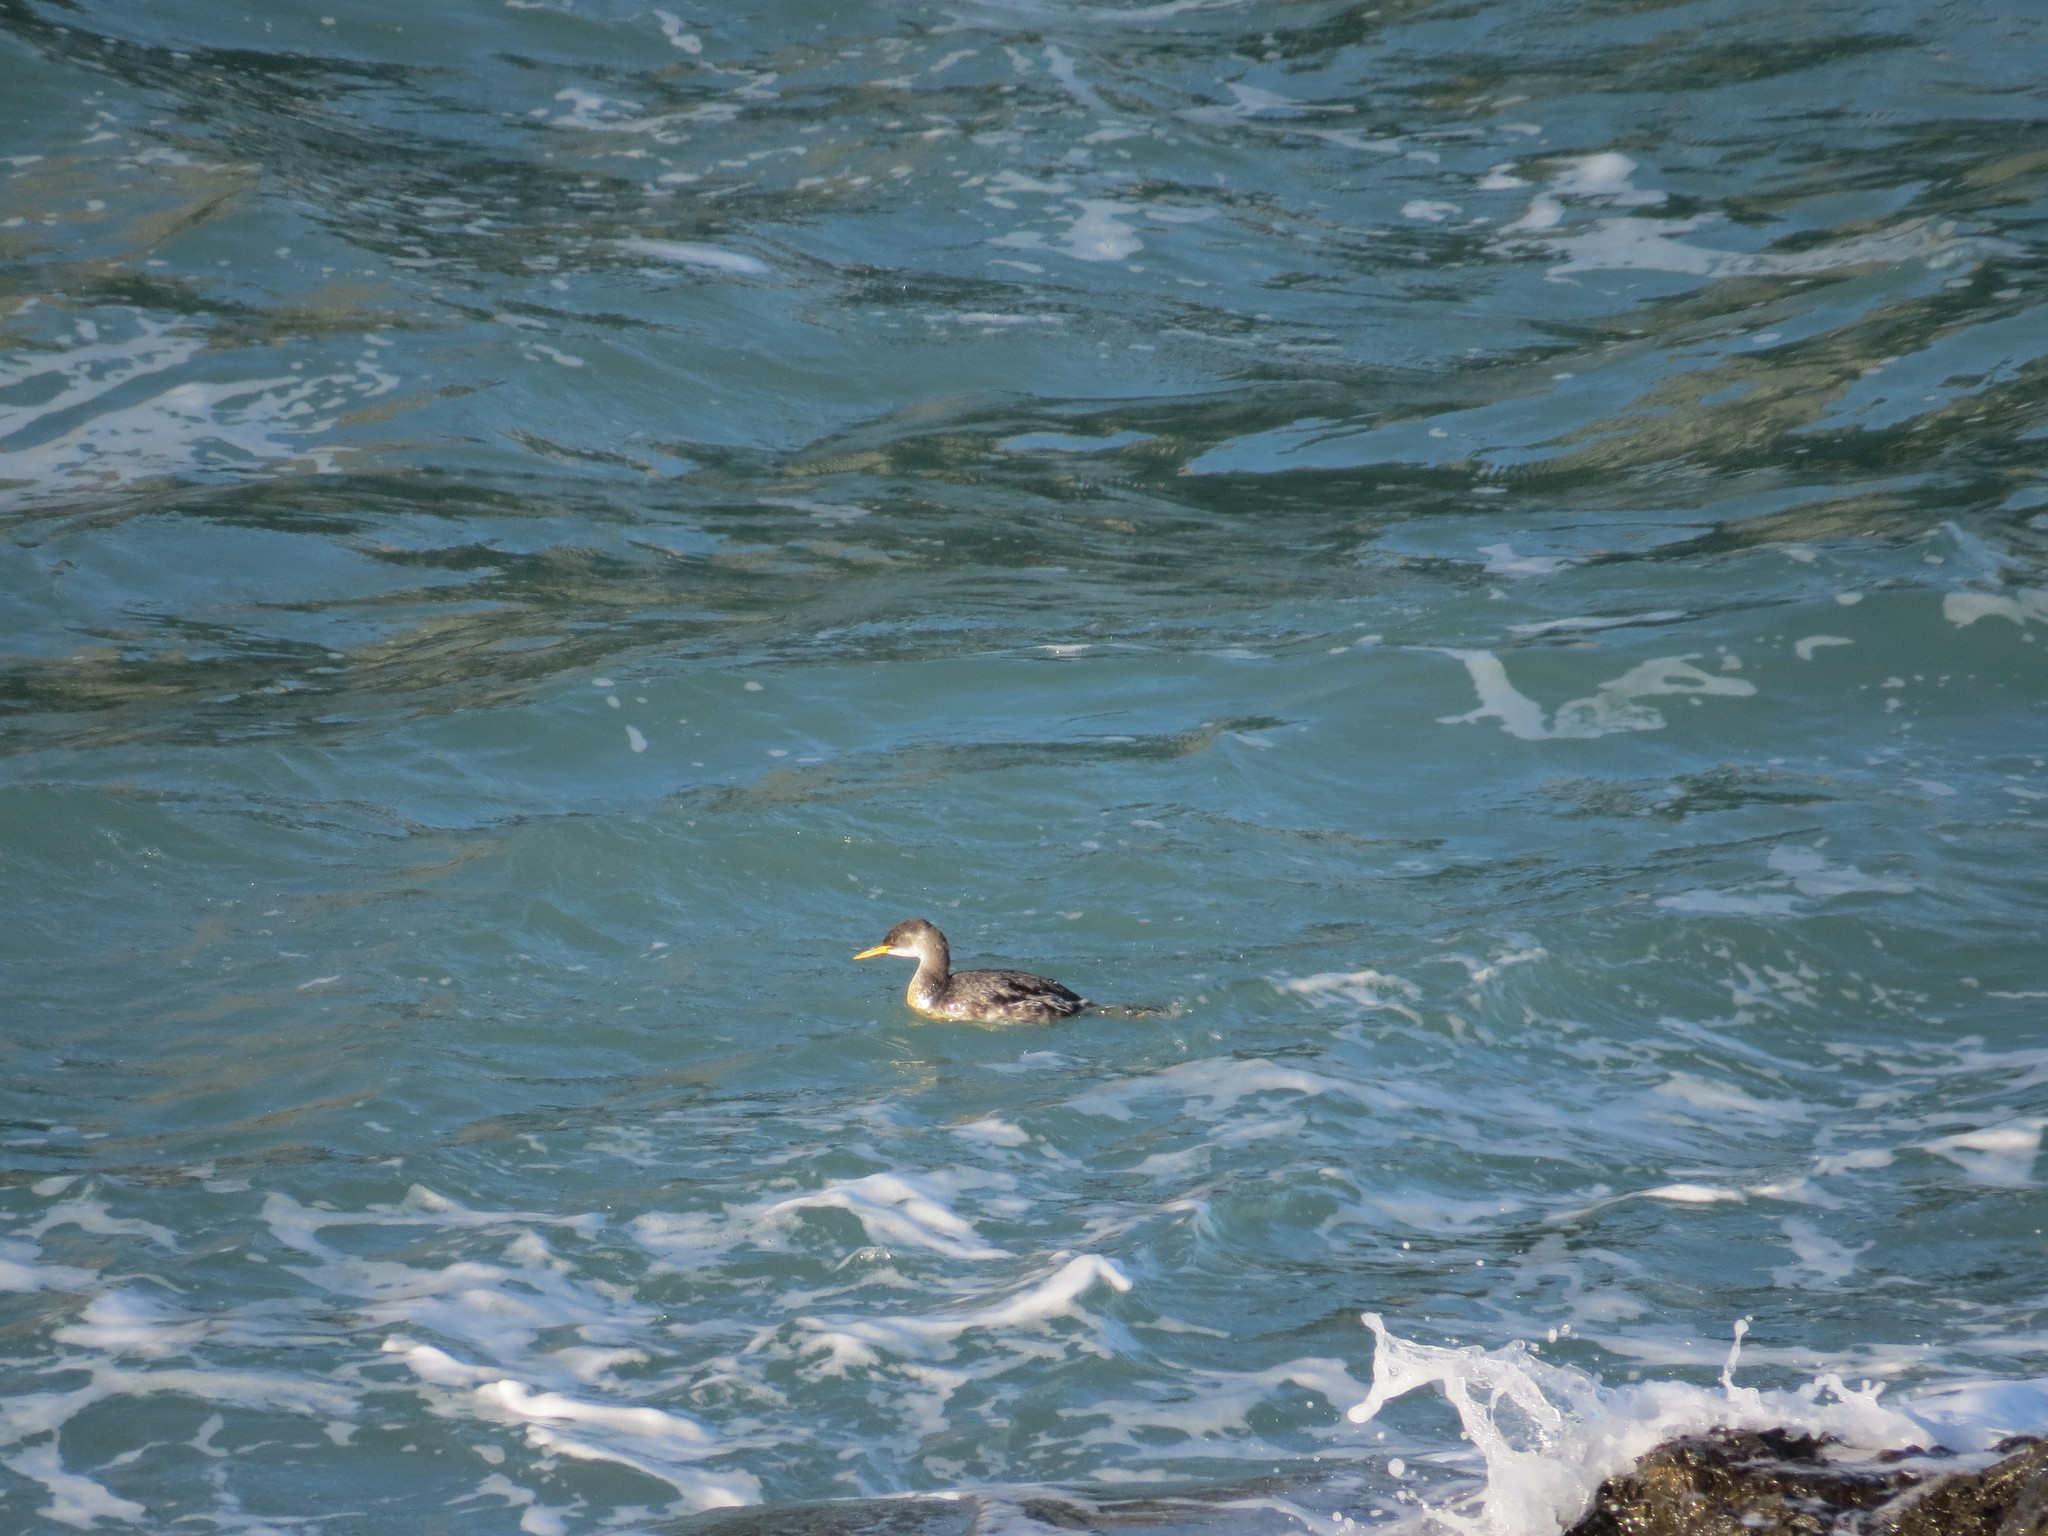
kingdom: Animalia
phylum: Chordata
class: Aves
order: Podicipediformes
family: Podicipedidae
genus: Podiceps
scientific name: Podiceps grisegena
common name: Red-necked grebe
